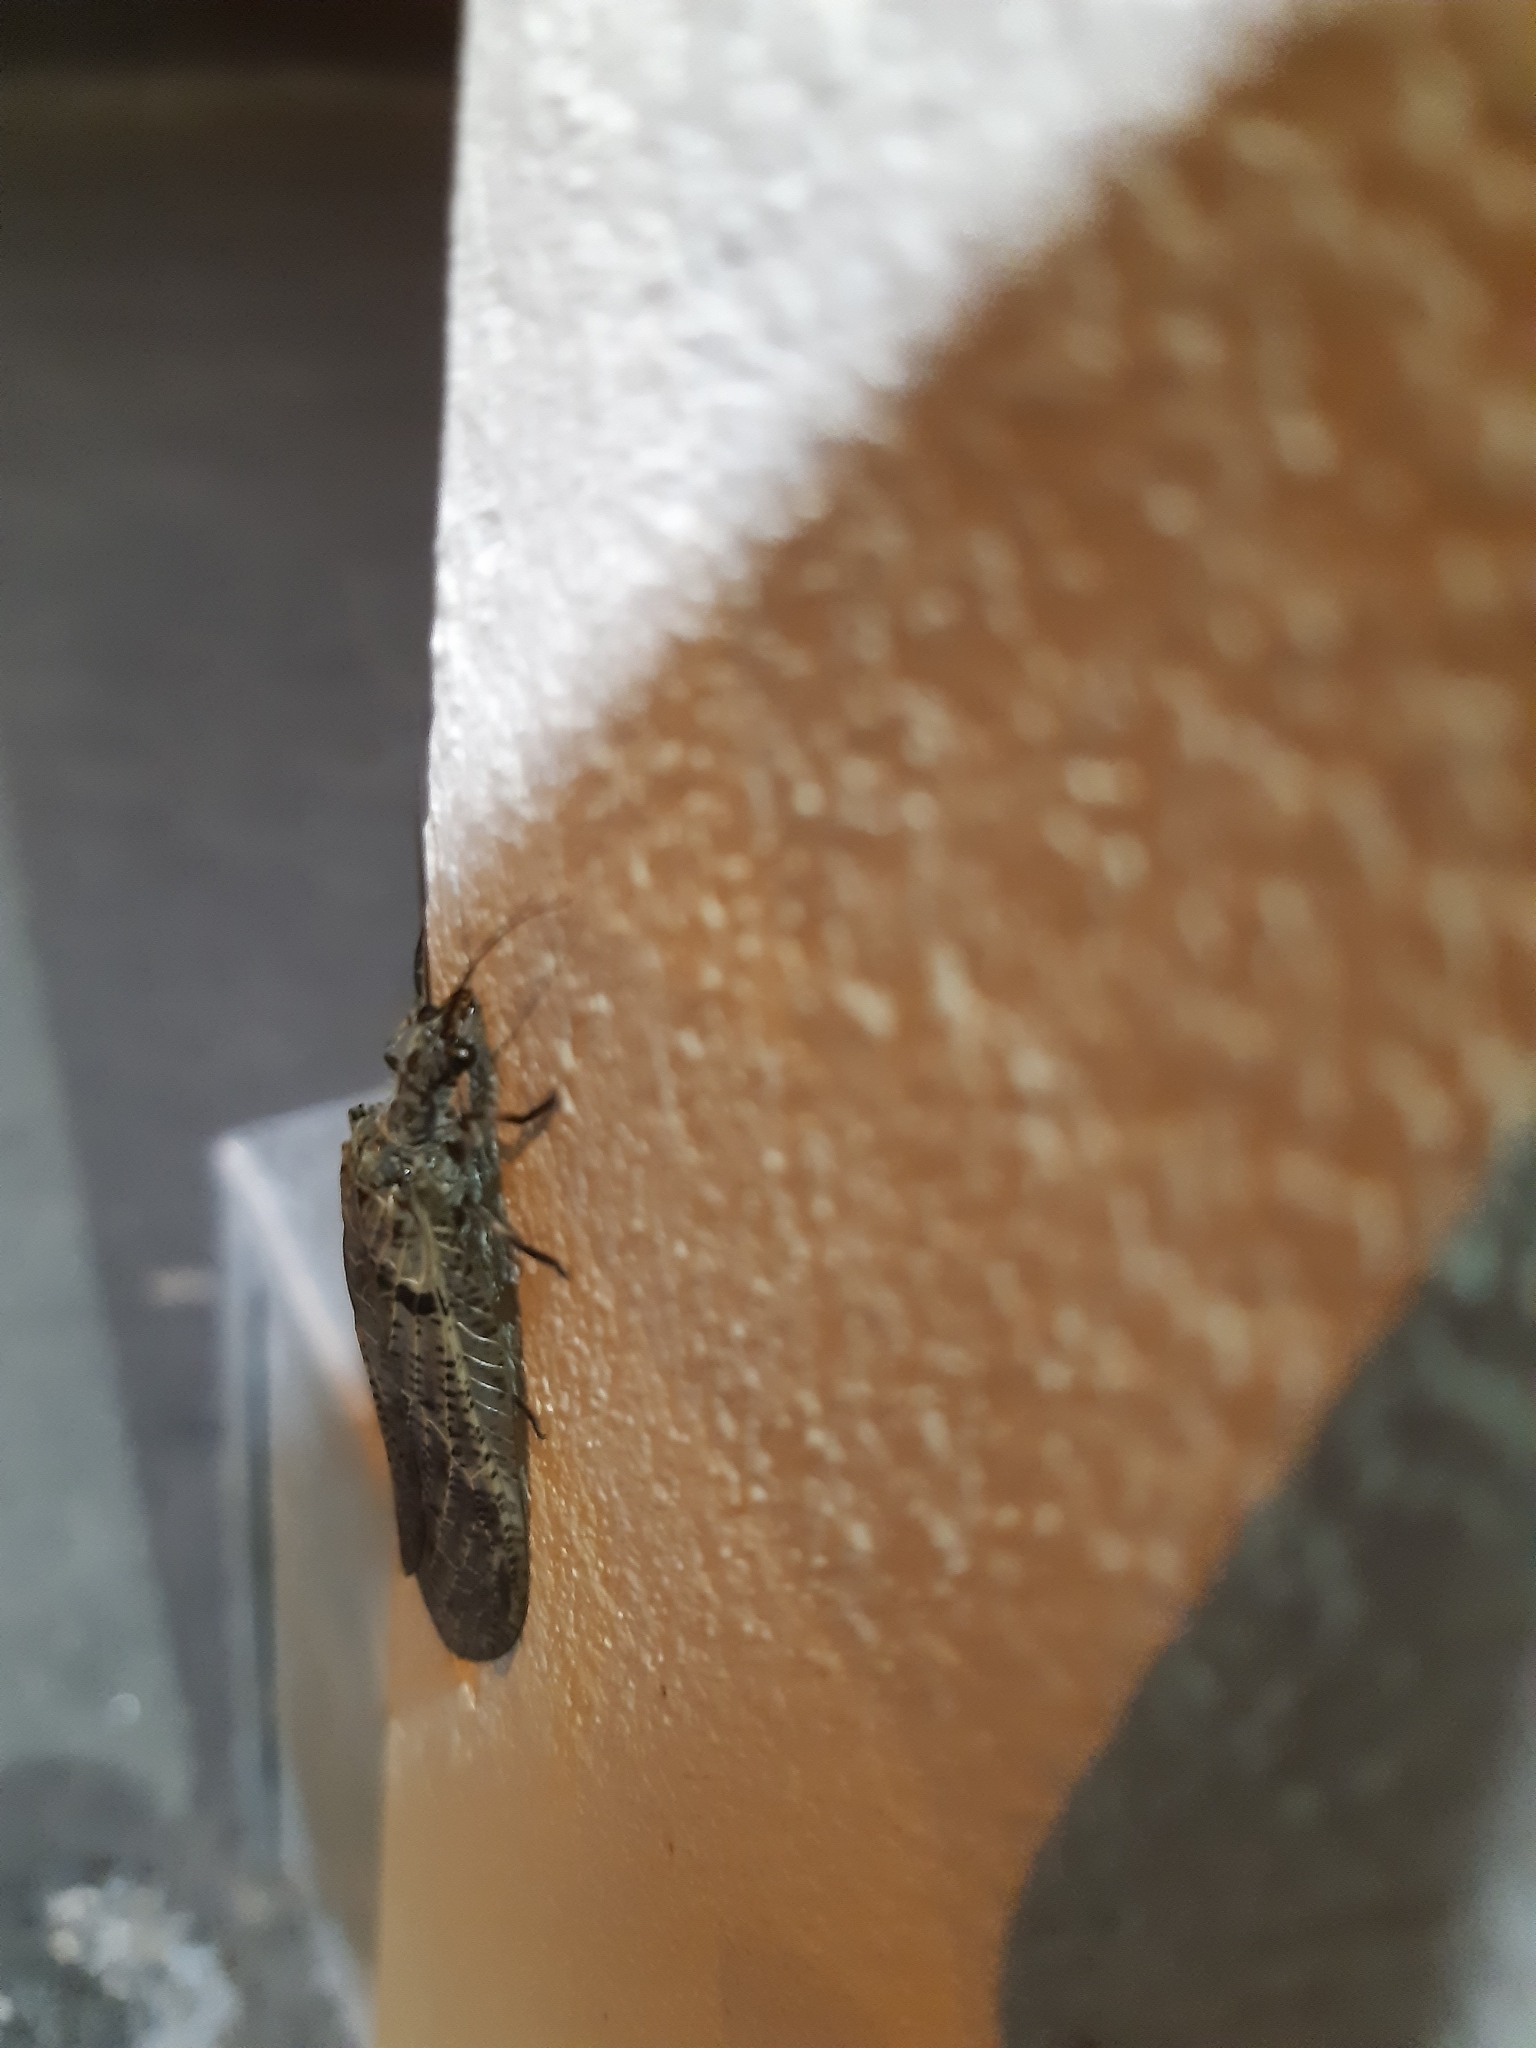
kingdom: Animalia
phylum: Arthropoda
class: Insecta
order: Megaloptera
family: Corydalidae
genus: Archichauliodes
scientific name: Archichauliodes diversus
